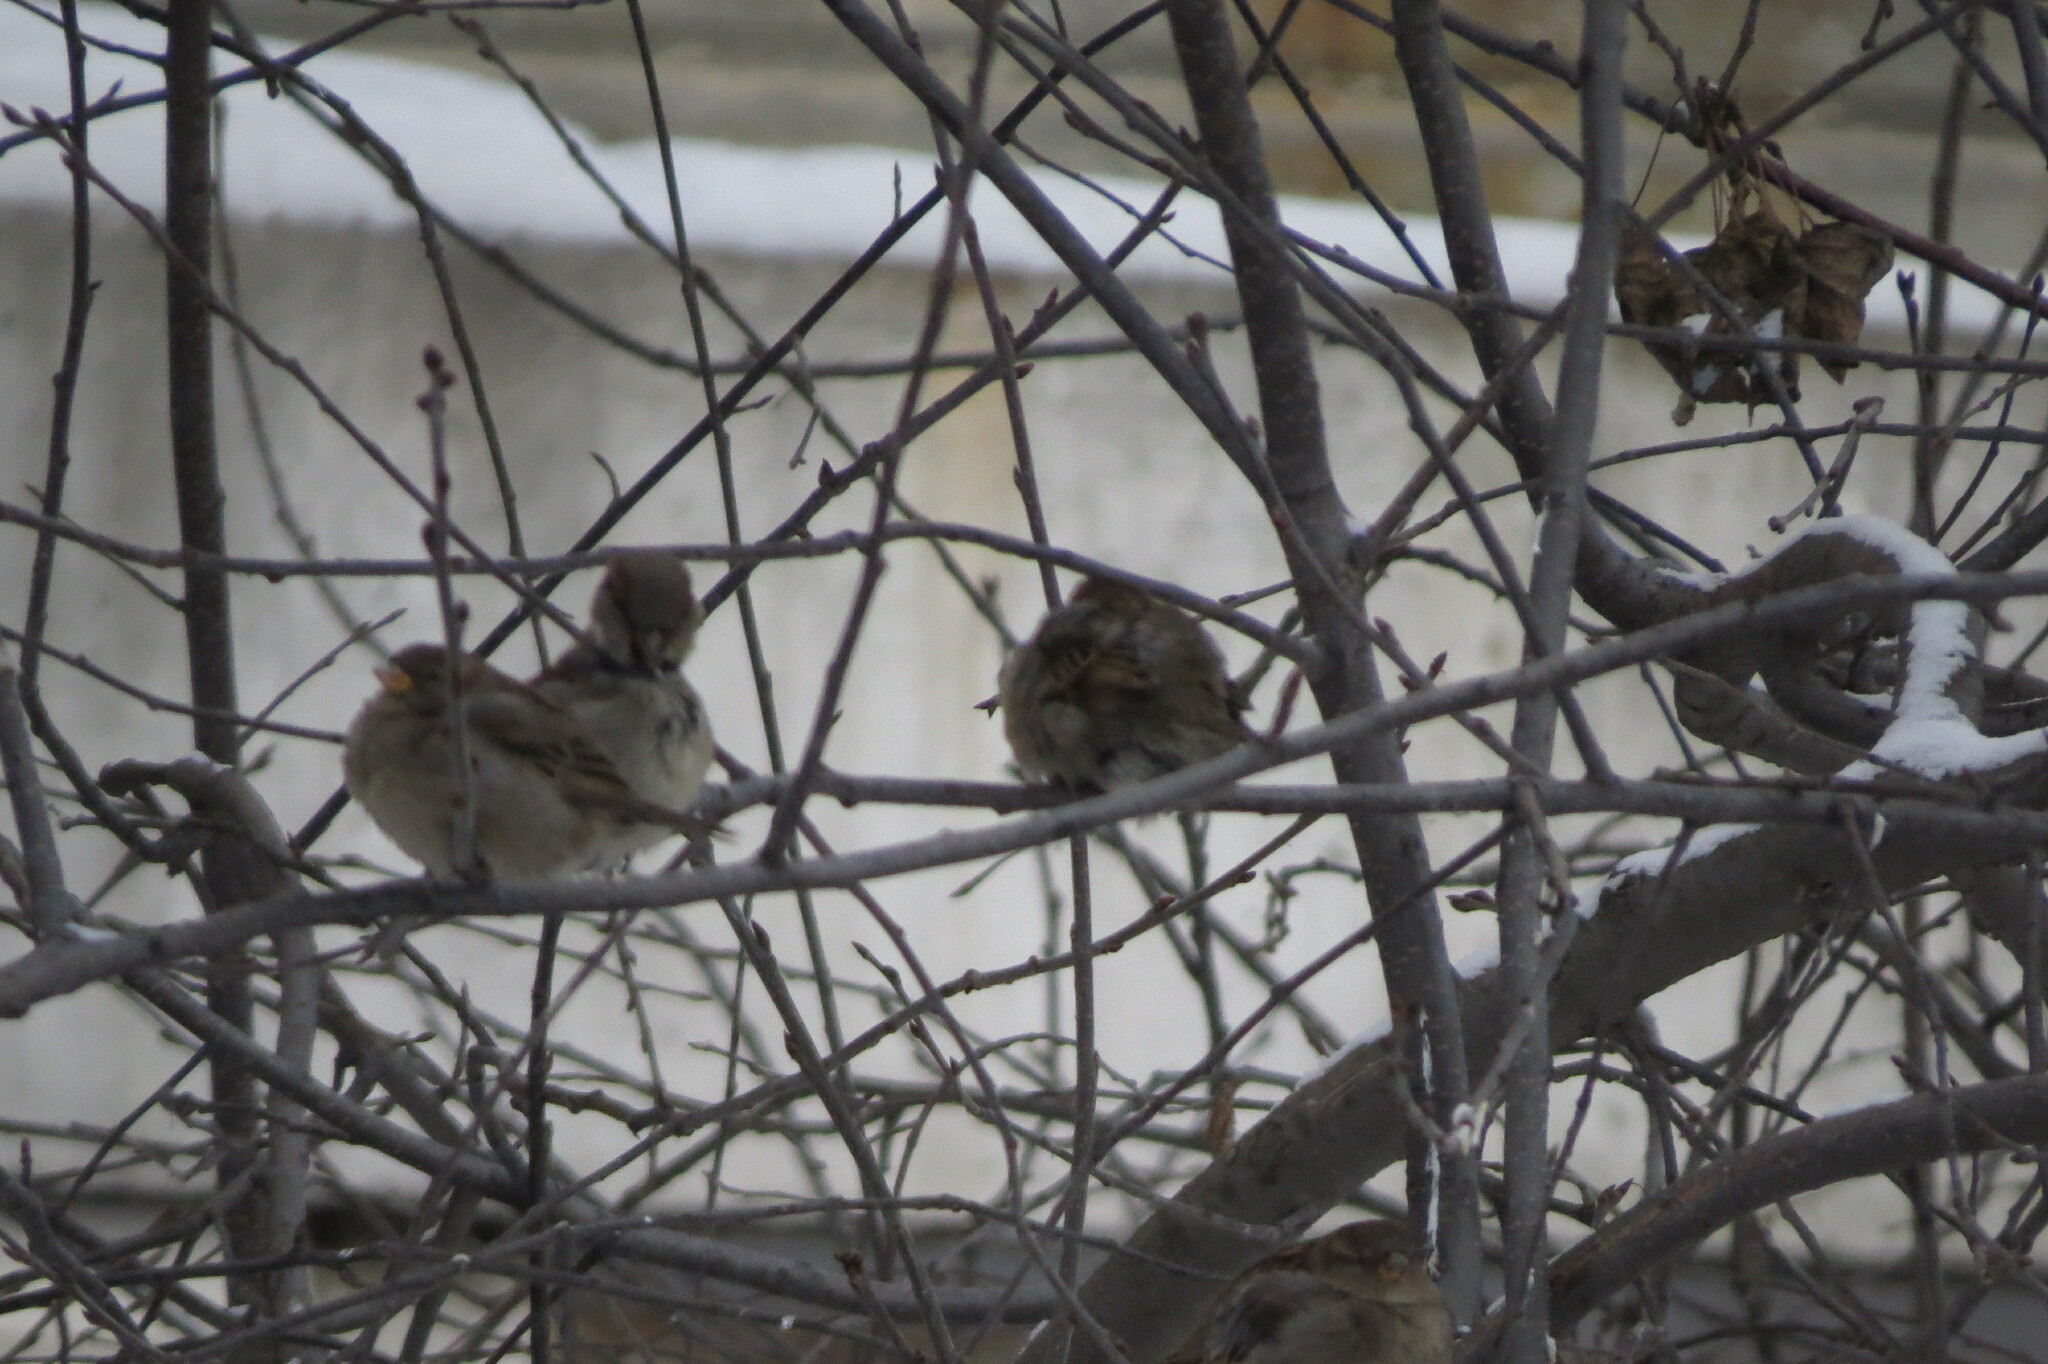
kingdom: Animalia
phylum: Chordata
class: Aves
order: Passeriformes
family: Passeridae
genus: Passer
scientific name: Passer domesticus
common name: House sparrow
